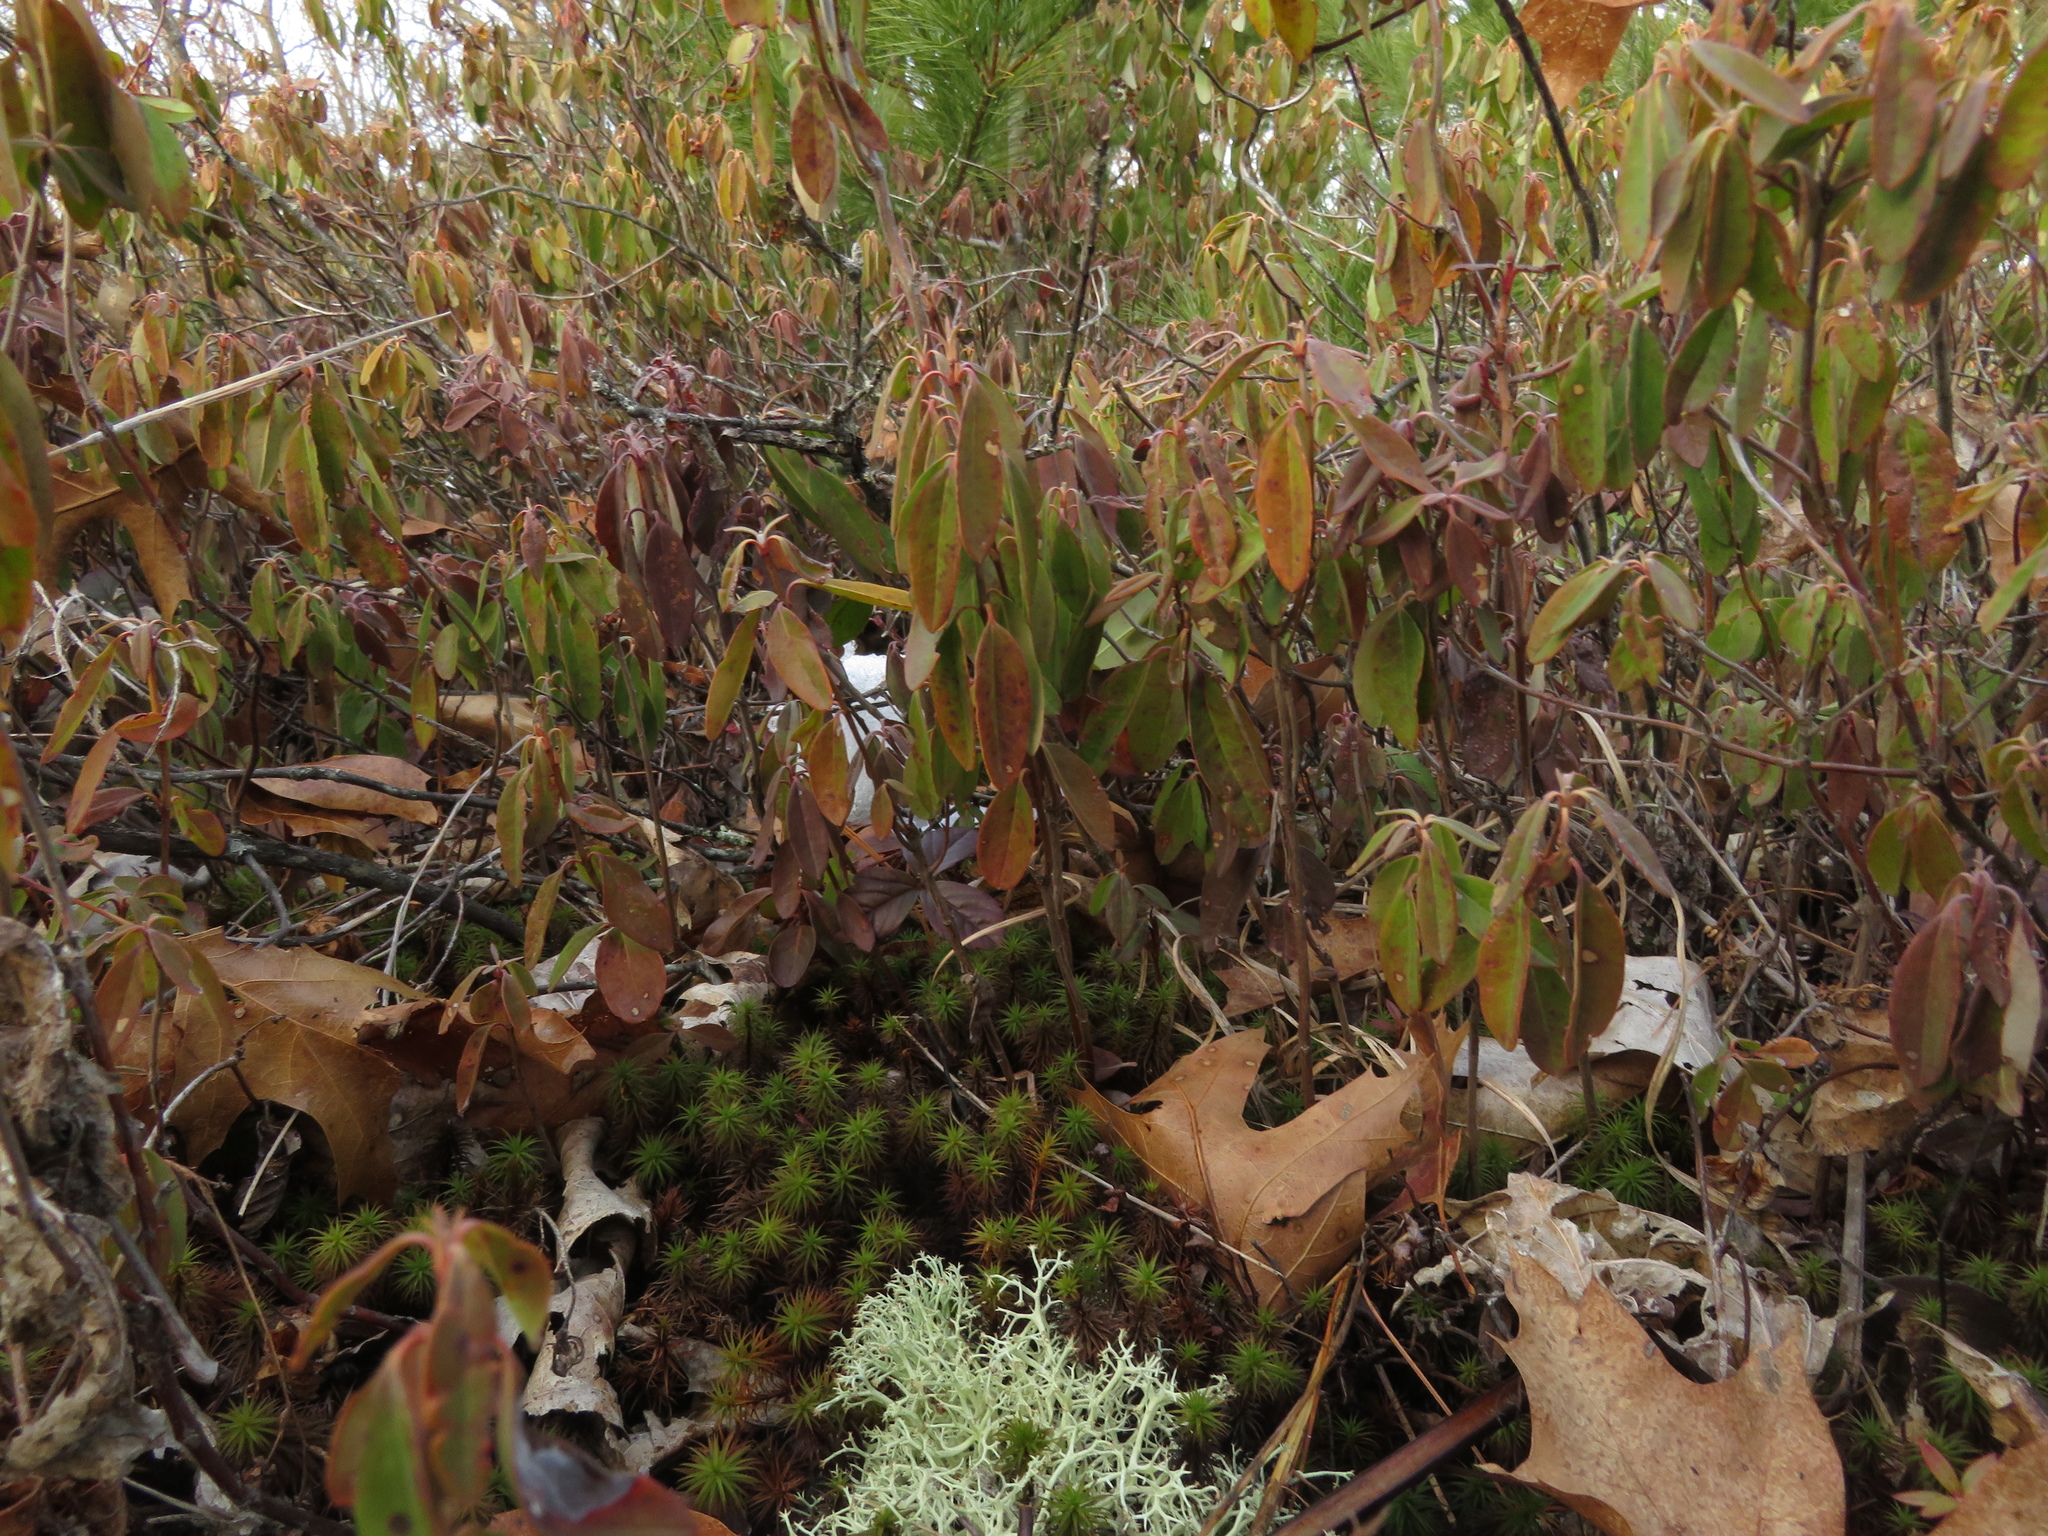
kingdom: Plantae
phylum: Tracheophyta
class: Magnoliopsida
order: Ericales
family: Ericaceae
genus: Kalmia
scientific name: Kalmia angustifolia
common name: Sheep-laurel
